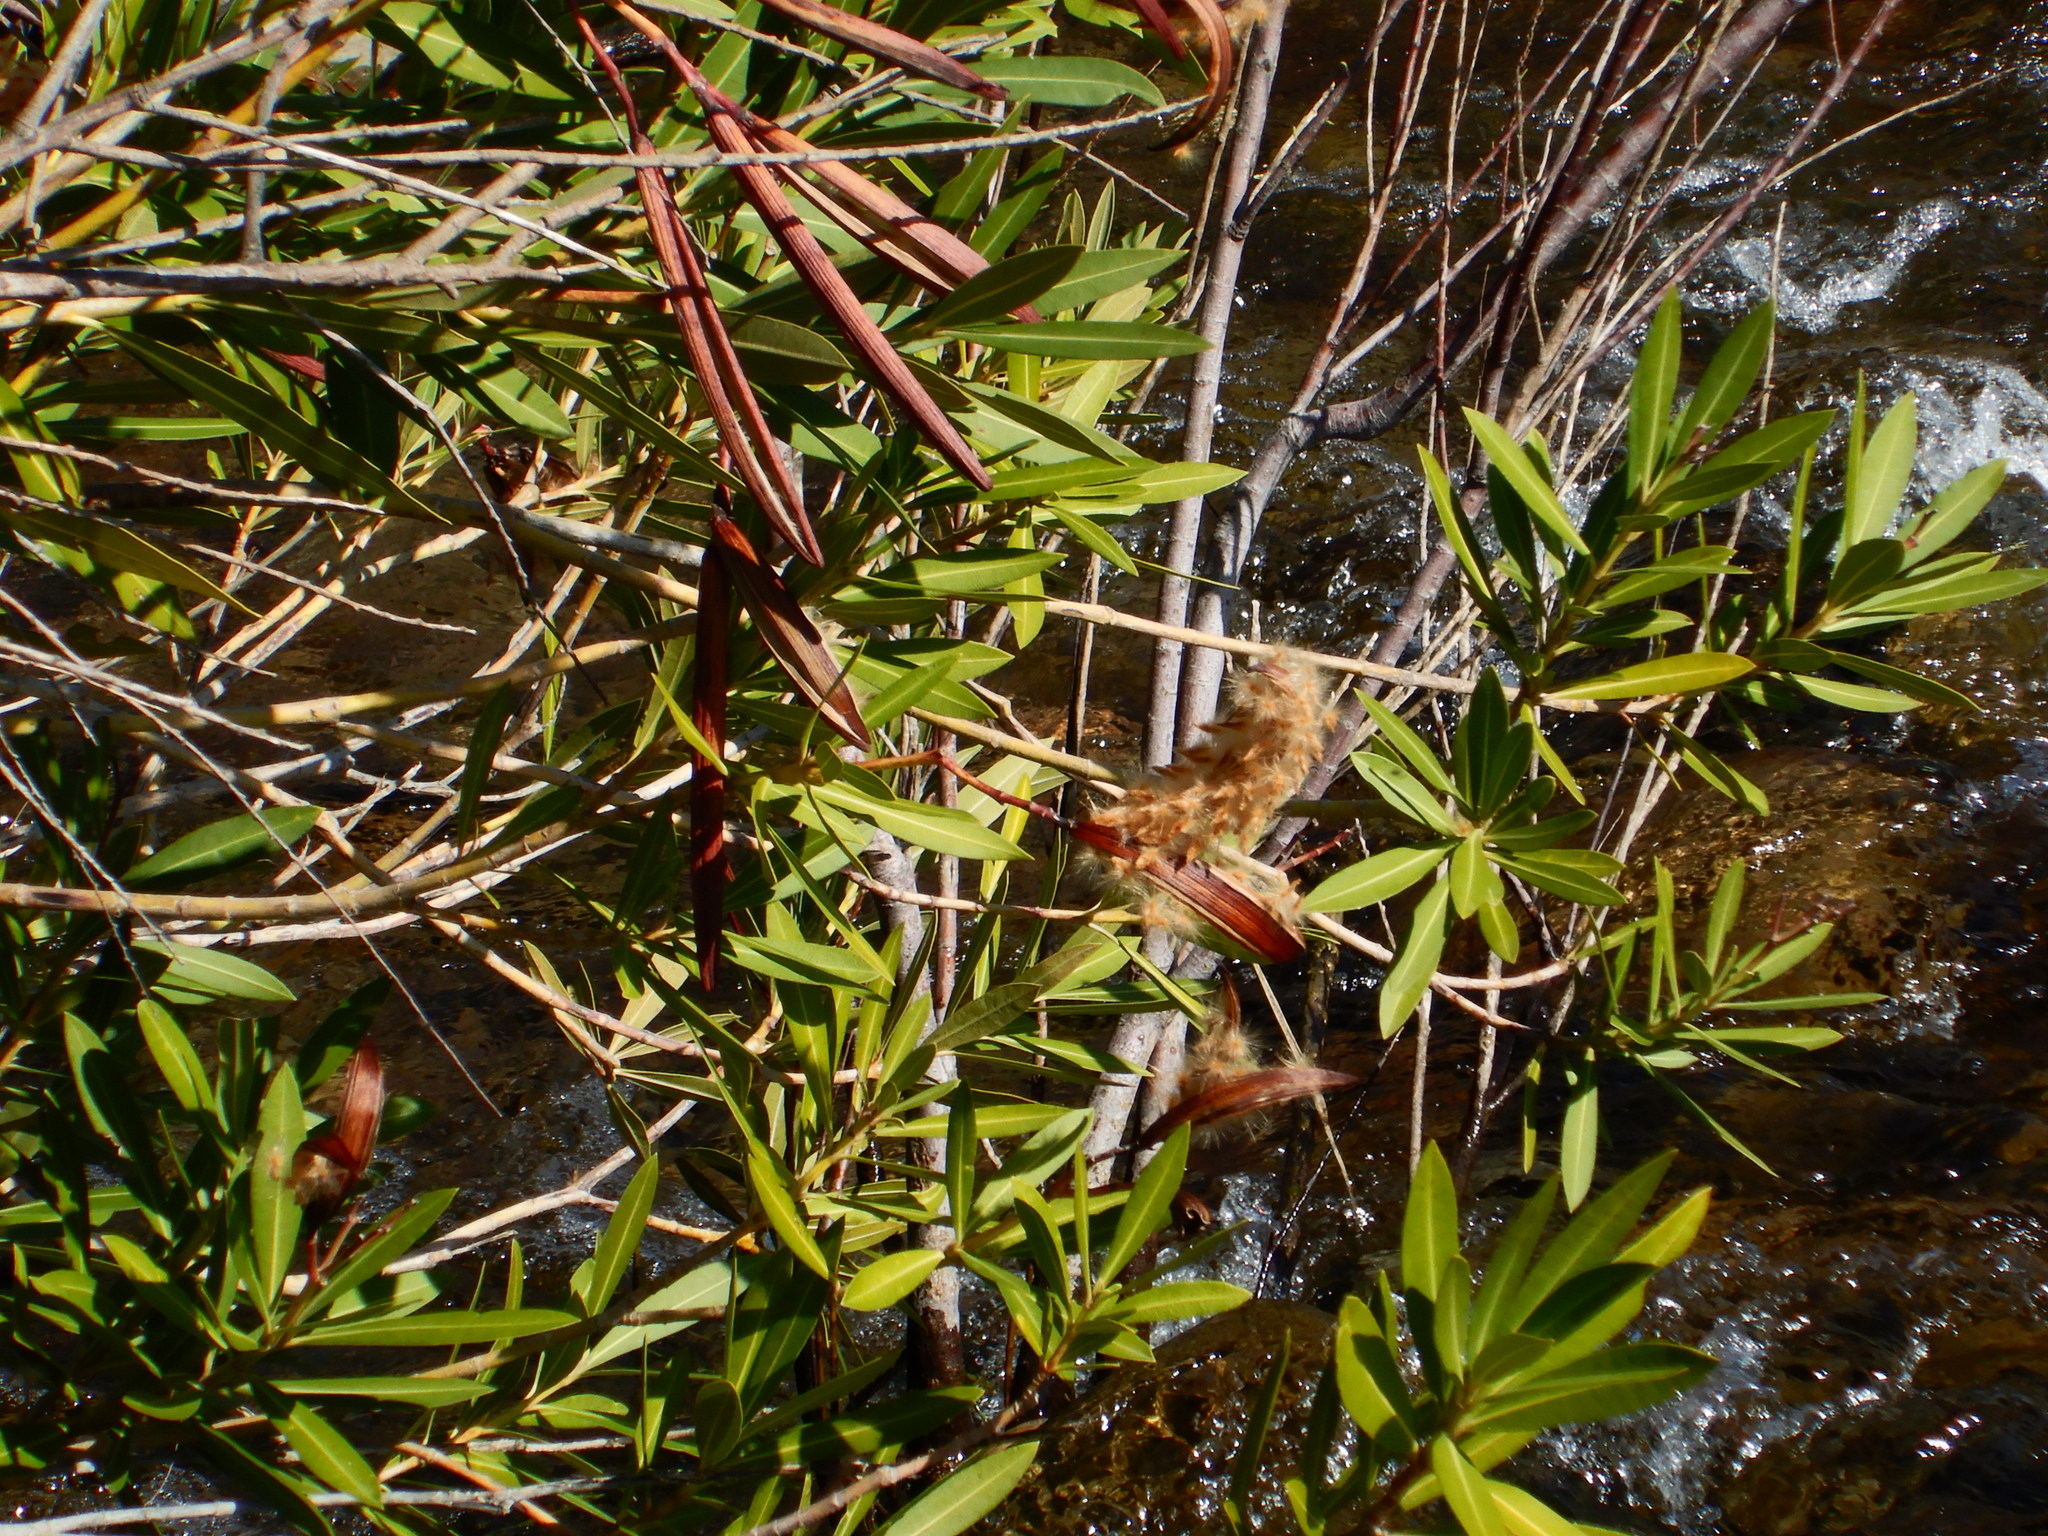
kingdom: Plantae
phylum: Tracheophyta
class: Magnoliopsida
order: Gentianales
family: Apocynaceae
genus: Nerium
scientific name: Nerium oleander
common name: Oleander
